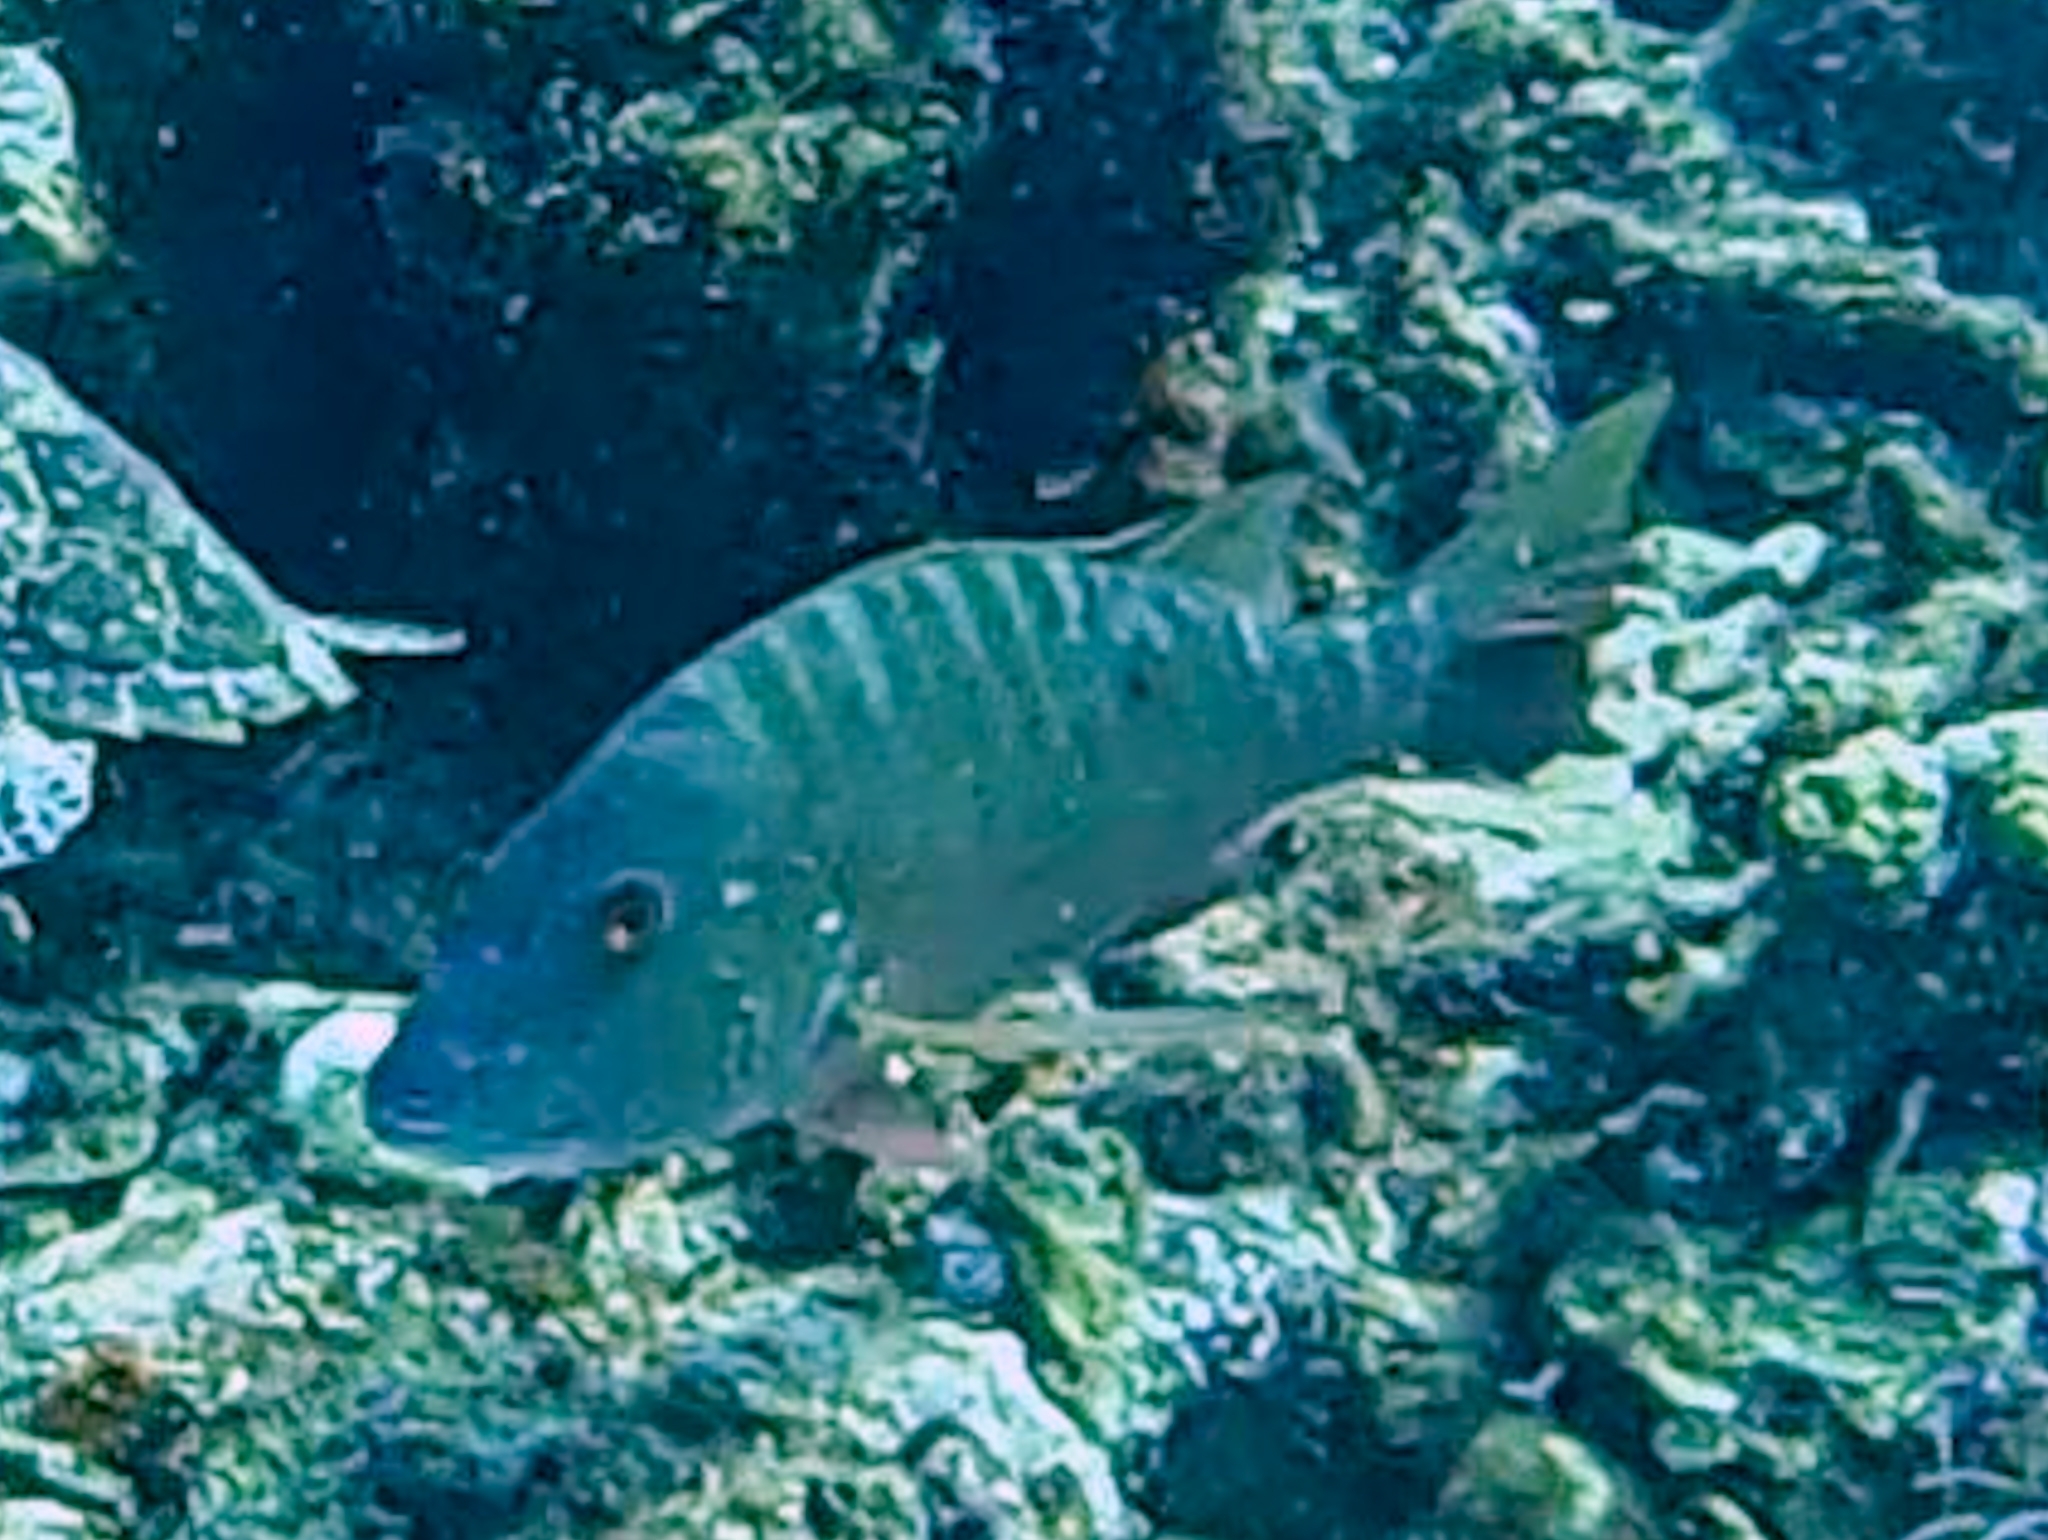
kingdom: Animalia
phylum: Chordata
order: Perciformes
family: Lutjanidae
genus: Lutjanus
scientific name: Lutjanus analis
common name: Mutton snapper
